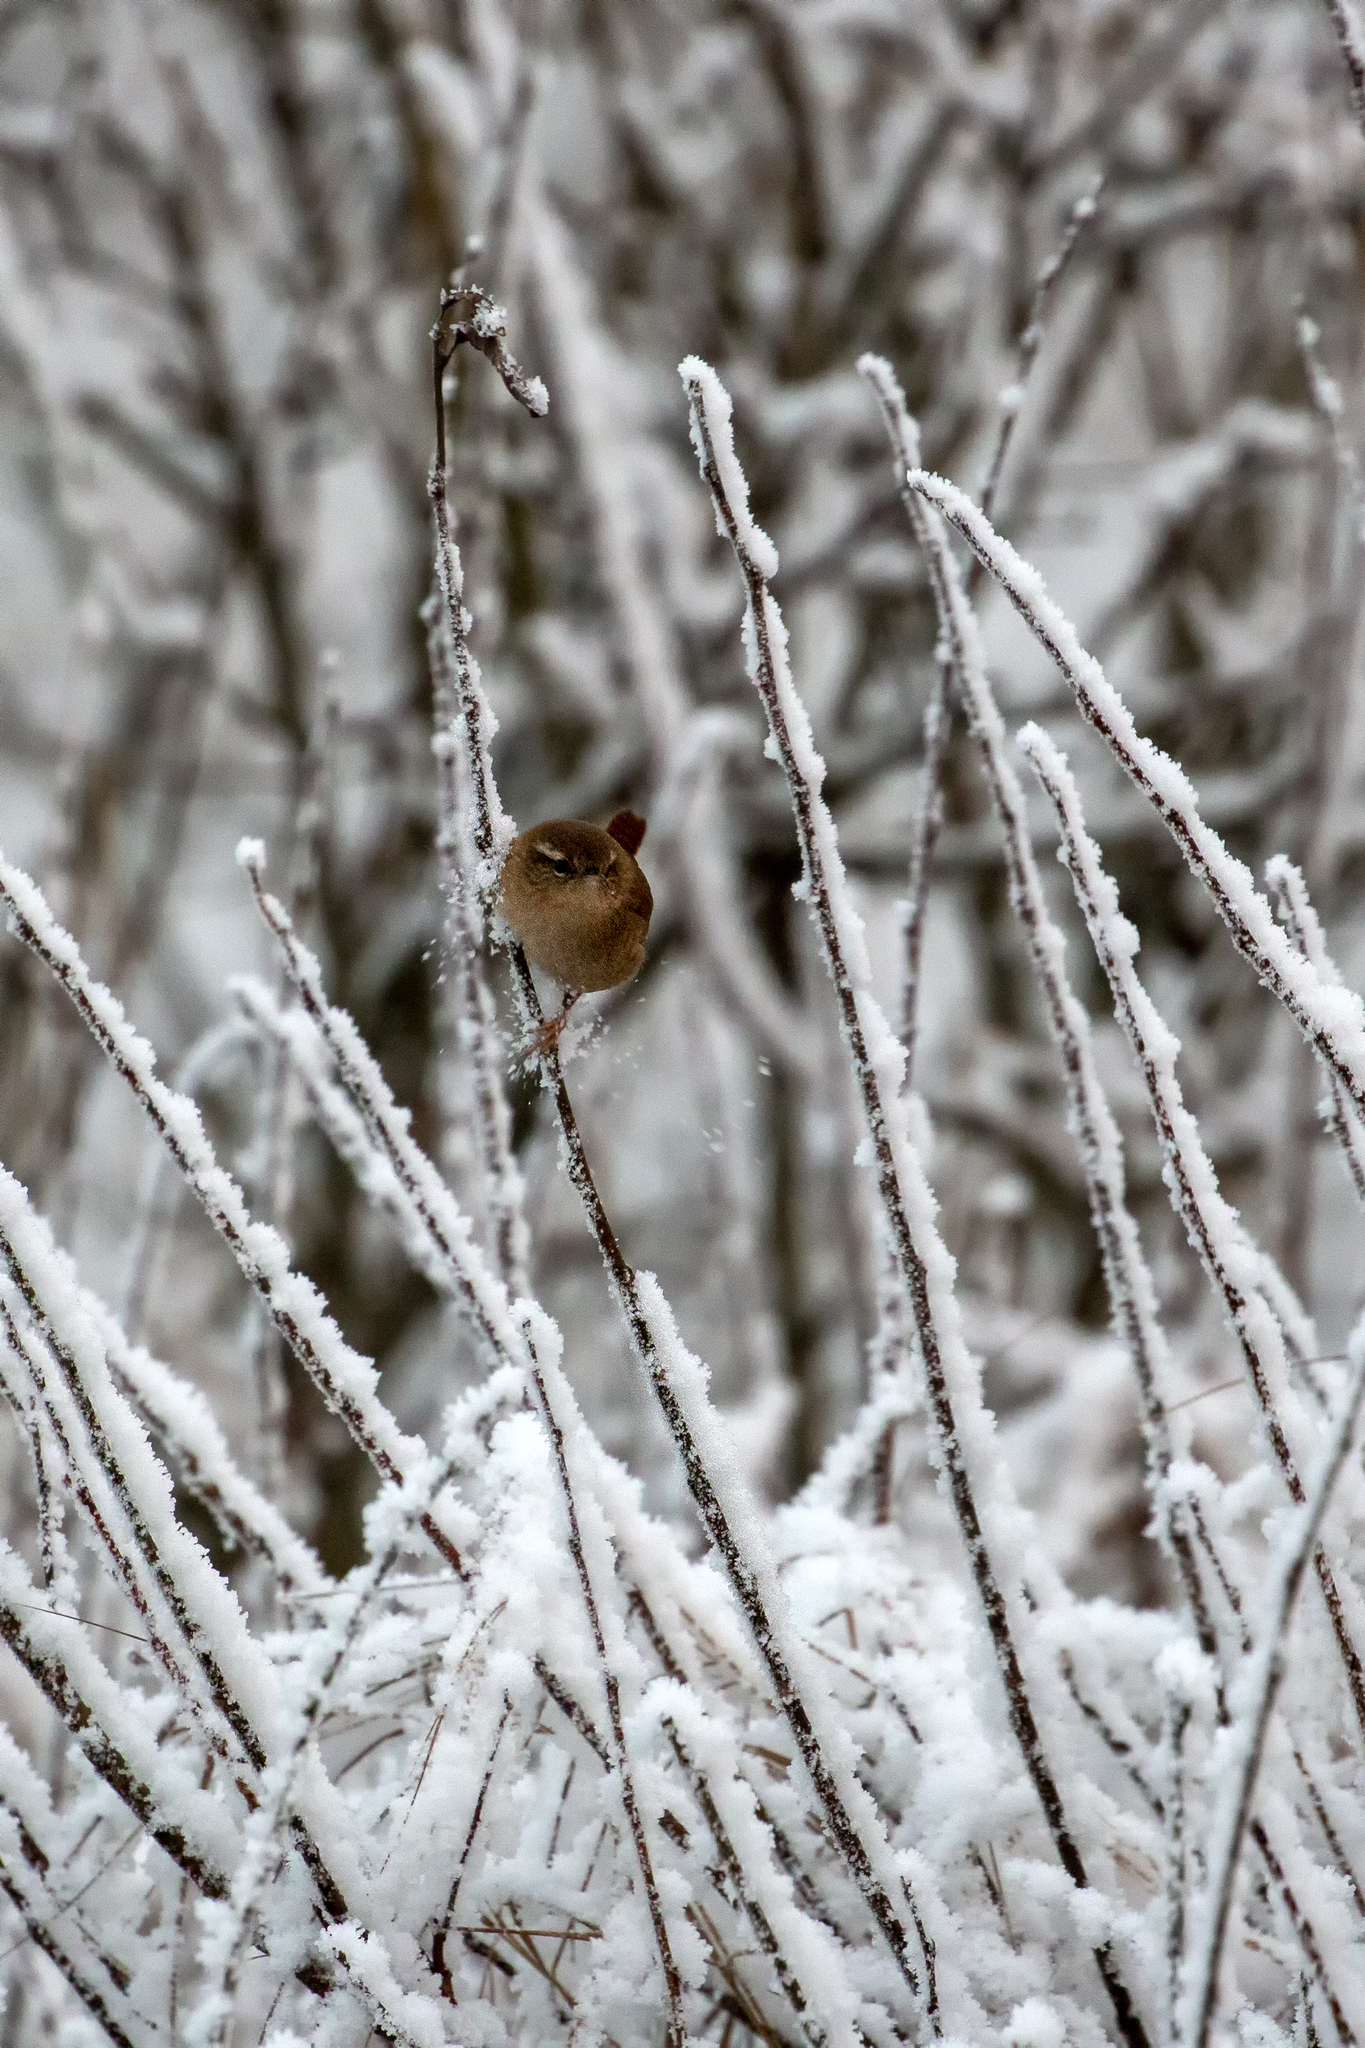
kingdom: Animalia
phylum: Chordata
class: Aves
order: Passeriformes
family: Troglodytidae
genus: Troglodytes
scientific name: Troglodytes troglodytes
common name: Eurasian wren
